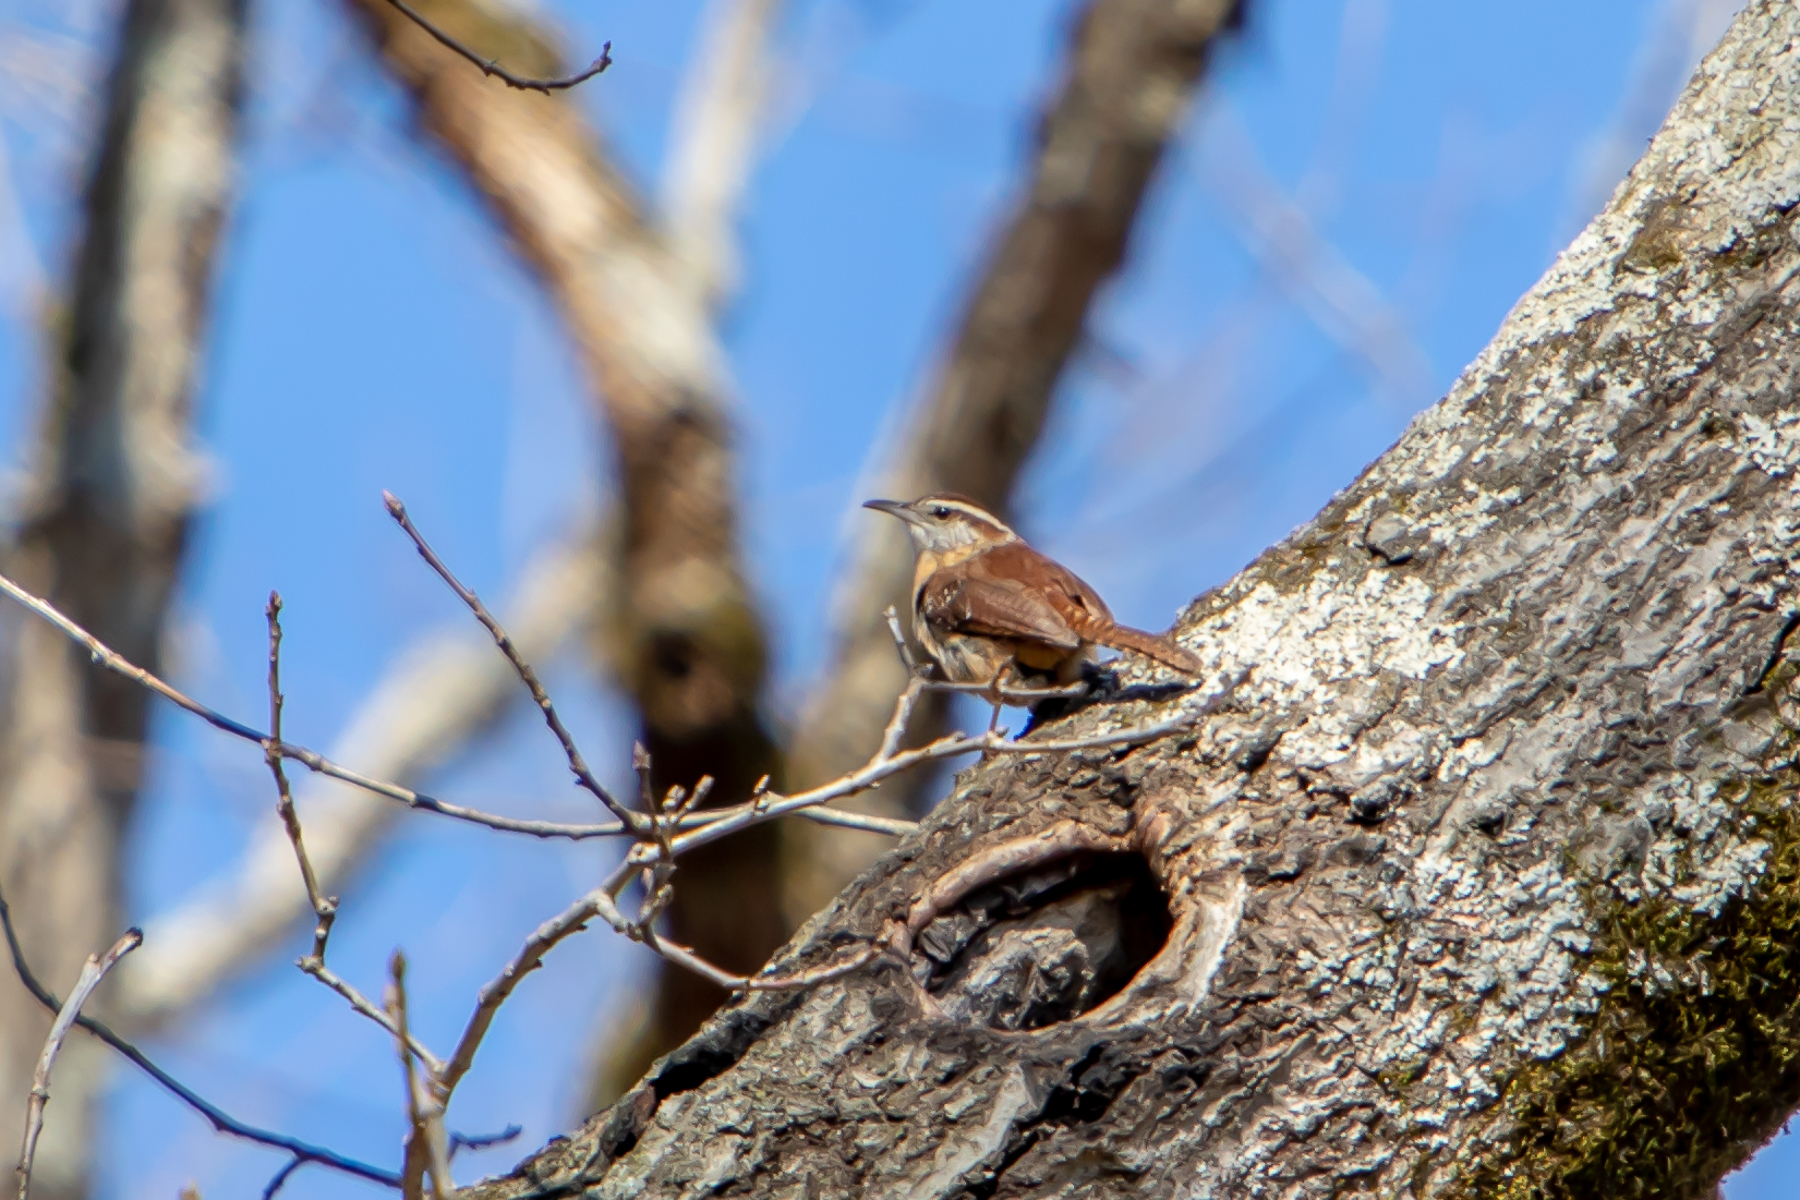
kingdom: Animalia
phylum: Chordata
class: Aves
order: Passeriformes
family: Troglodytidae
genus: Thryothorus
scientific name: Thryothorus ludovicianus
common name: Carolina wren
